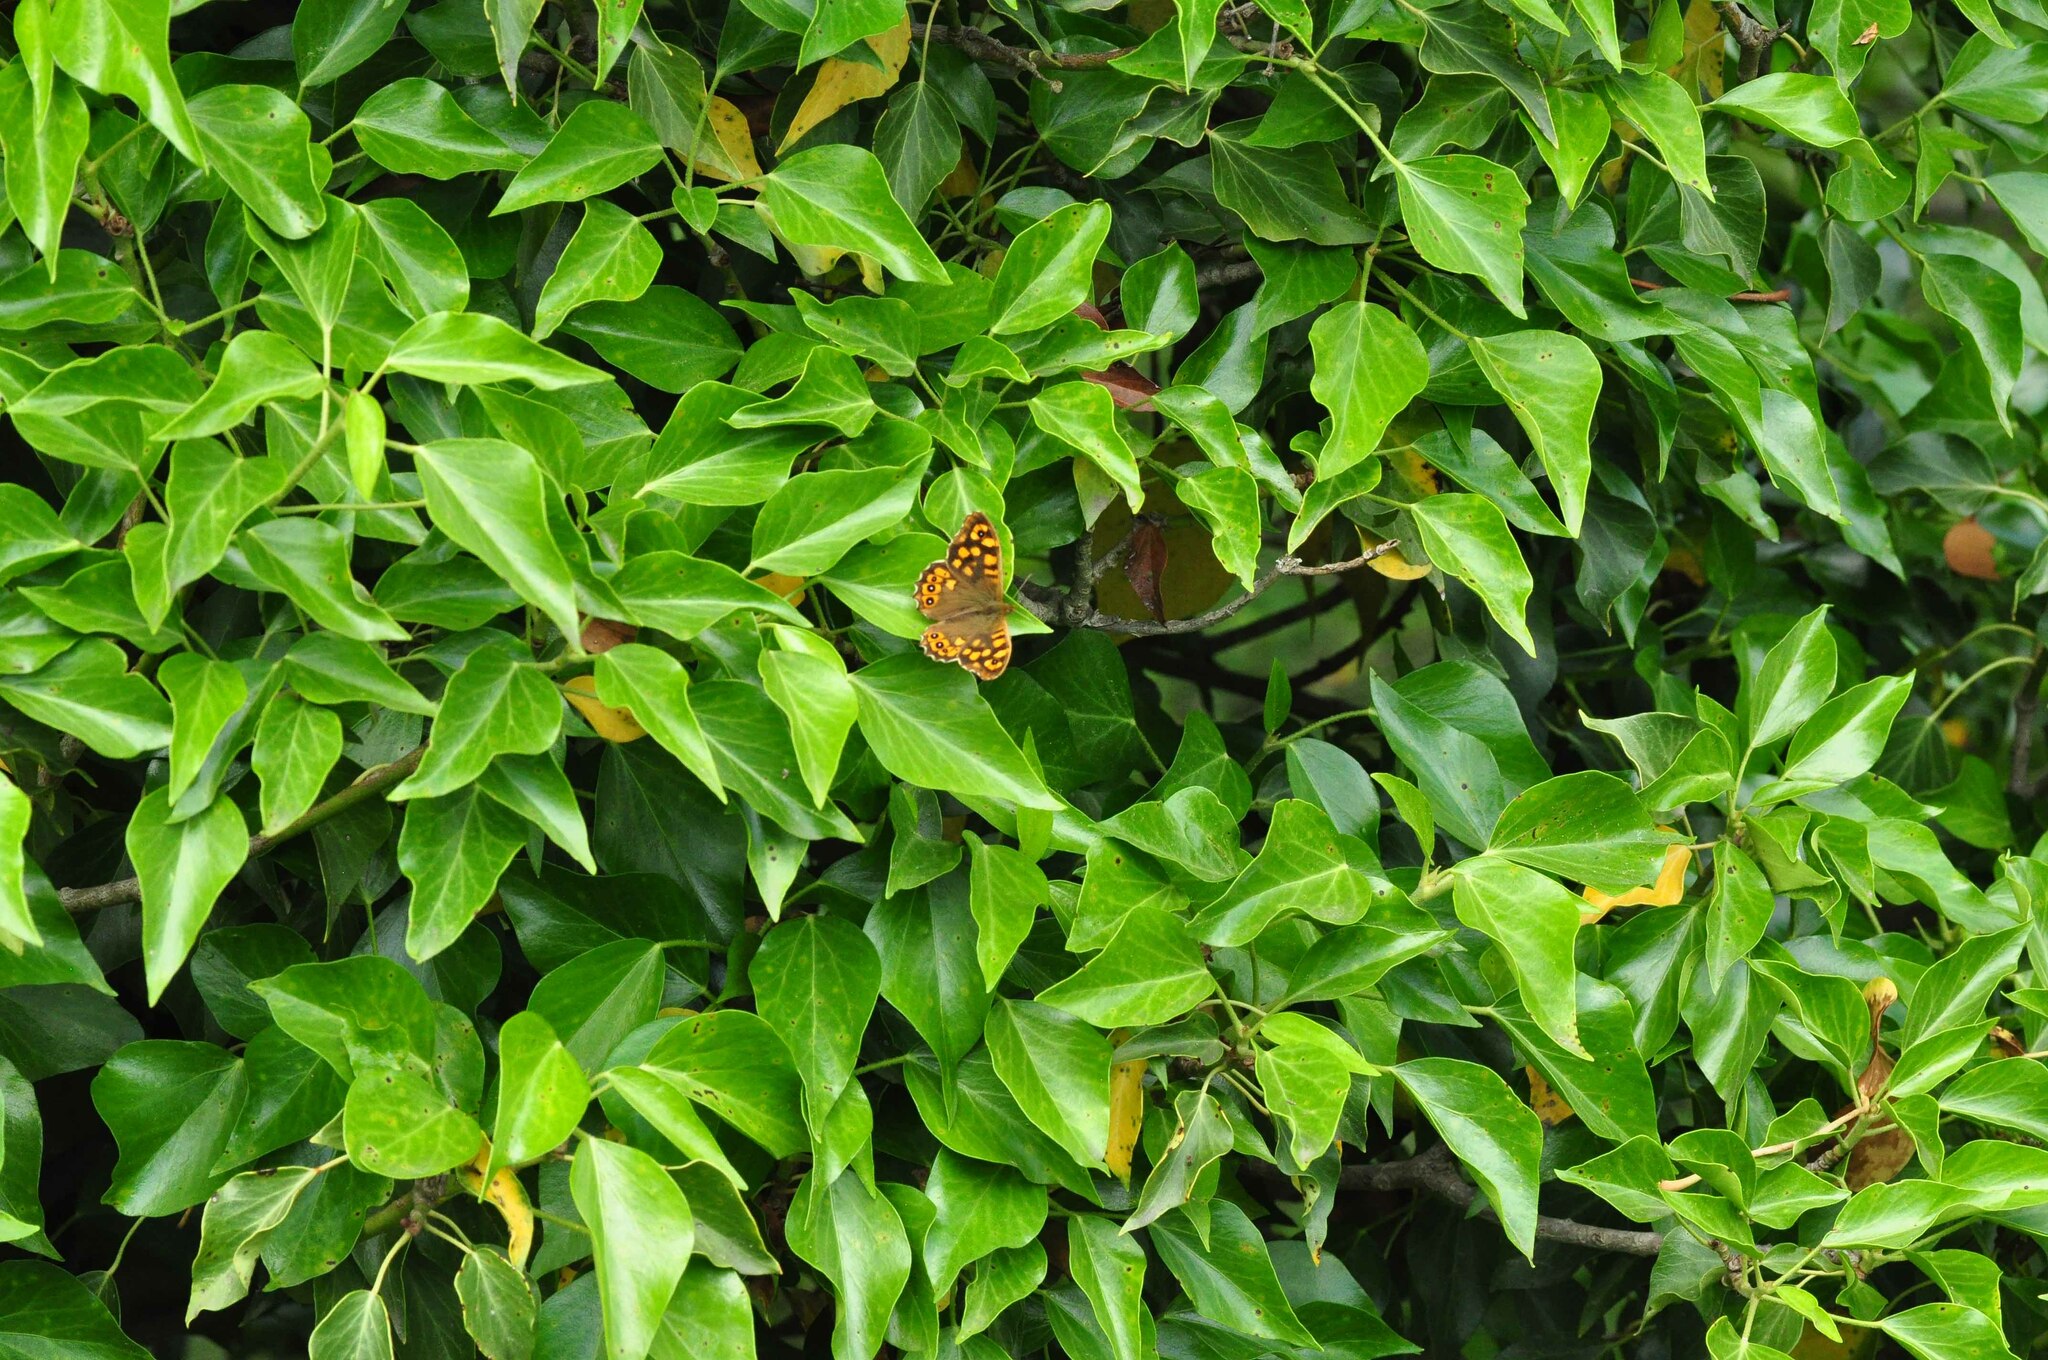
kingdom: Animalia
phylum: Arthropoda
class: Insecta
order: Lepidoptera
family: Nymphalidae
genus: Pararge
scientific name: Pararge aegeria
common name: Speckled wood
